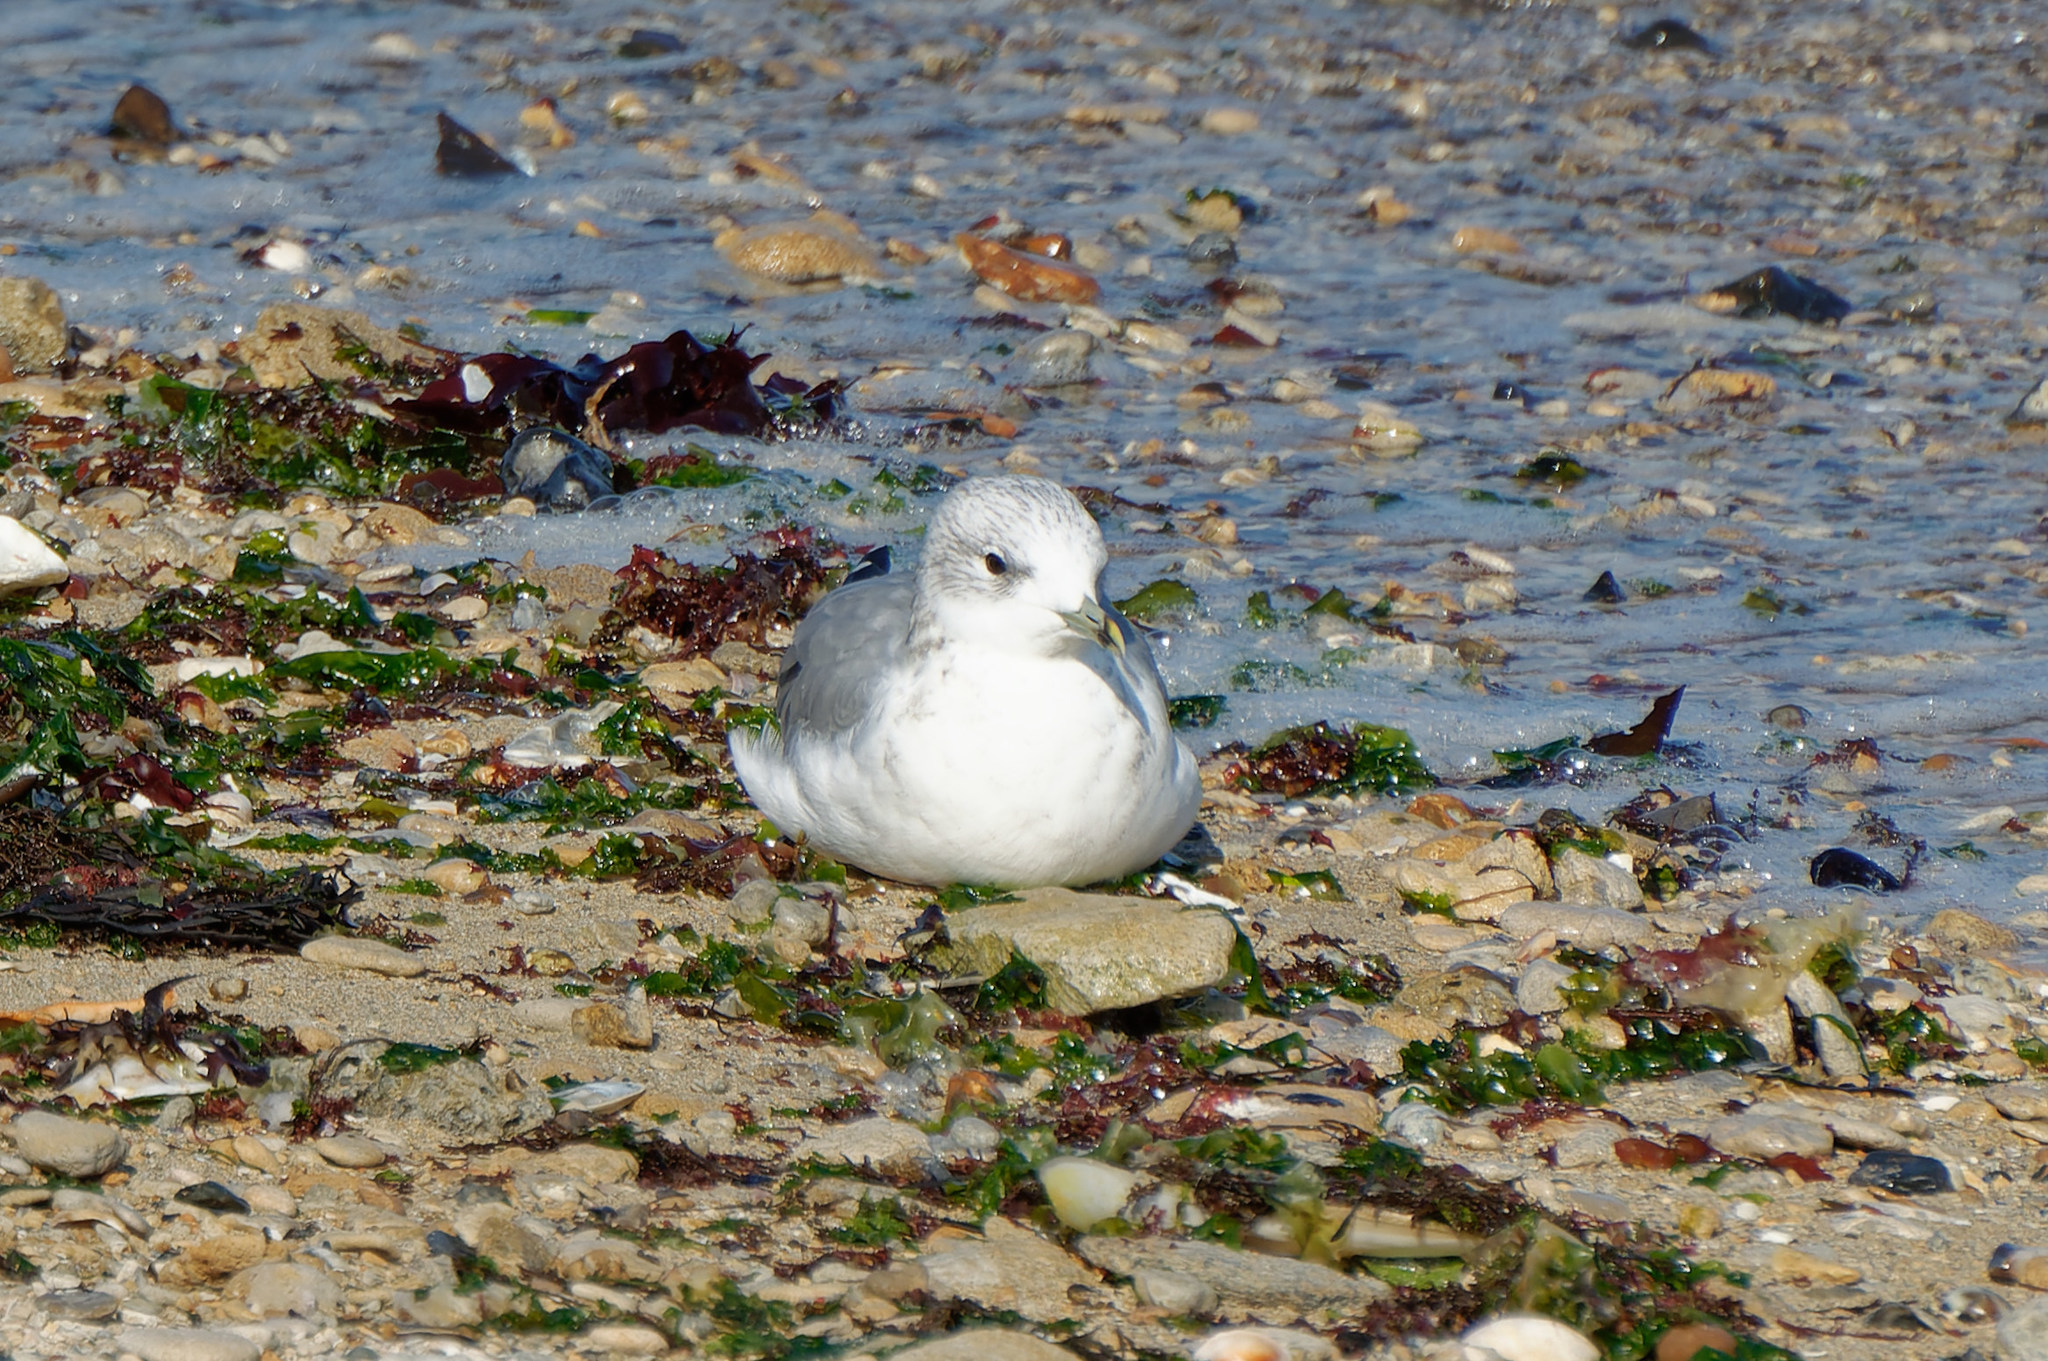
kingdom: Animalia
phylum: Chordata
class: Aves
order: Charadriiformes
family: Laridae
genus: Larus
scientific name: Larus canus
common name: Mew gull
